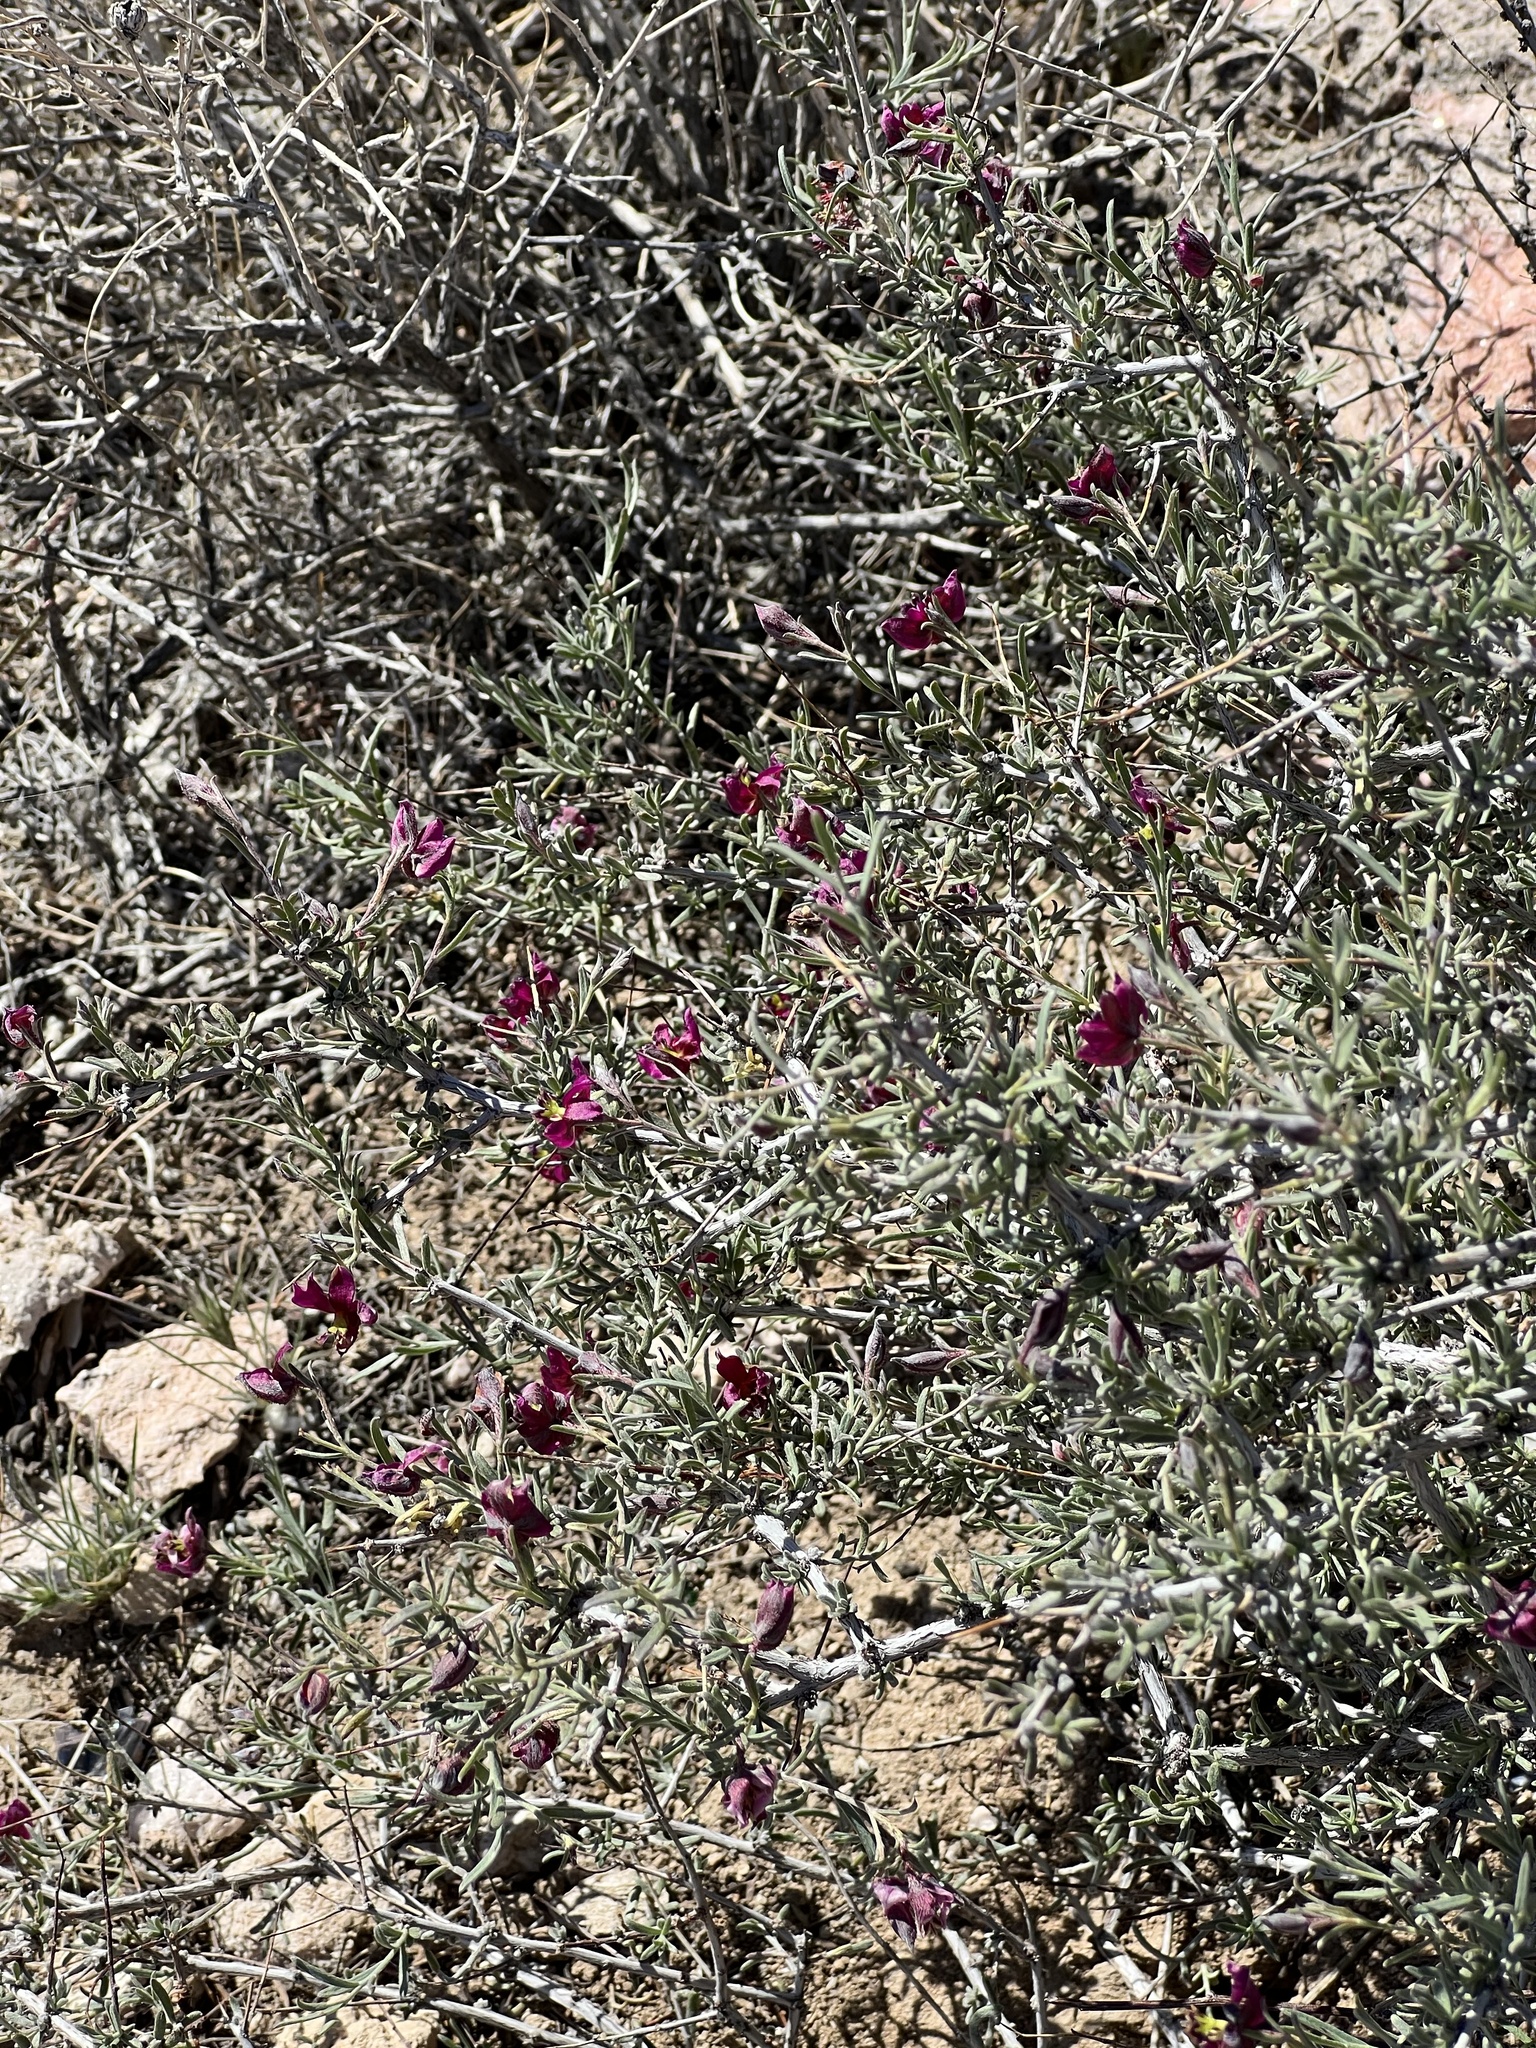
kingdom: Plantae
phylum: Tracheophyta
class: Magnoliopsida
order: Zygophyllales
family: Krameriaceae
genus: Krameria
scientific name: Krameria erecta
